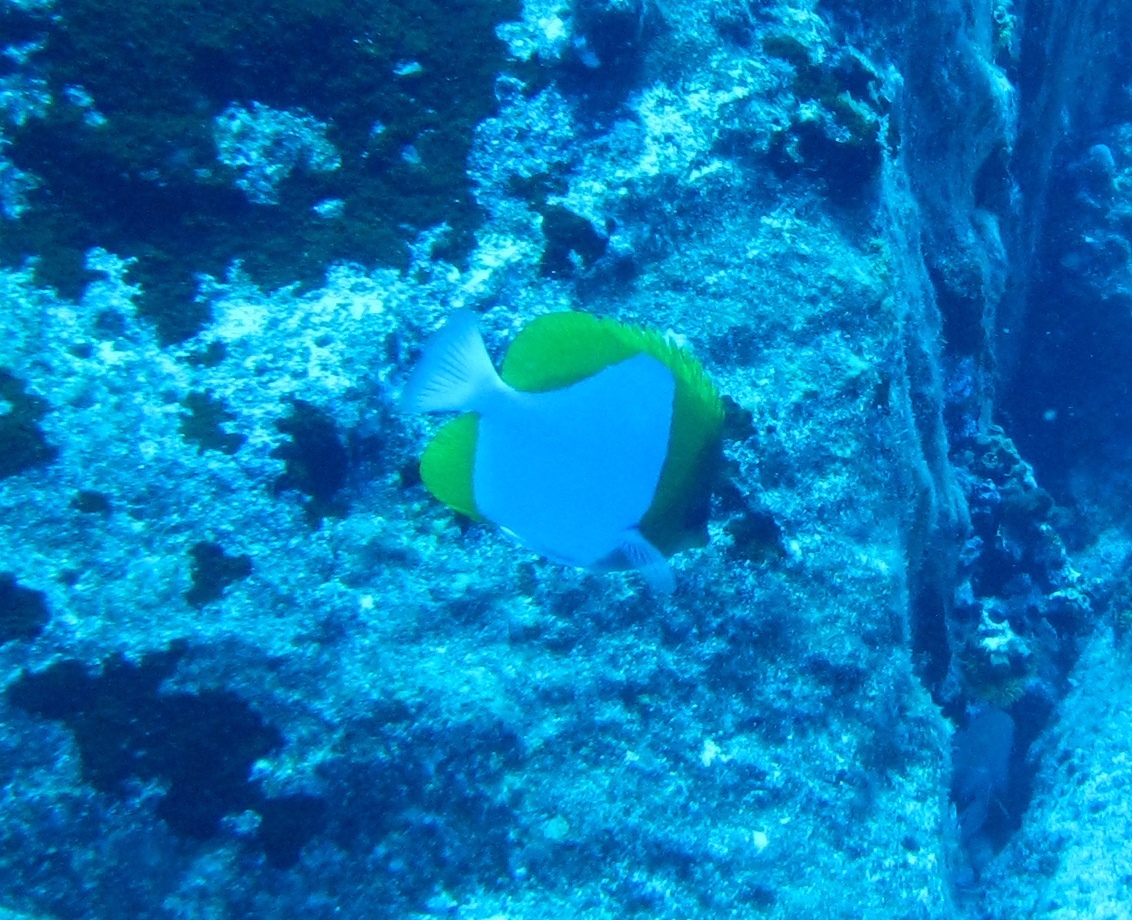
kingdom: Animalia
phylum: Chordata
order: Perciformes
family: Chaetodontidae
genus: Hemitaurichthys
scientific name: Hemitaurichthys polylepis
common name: Brushytoothed butterflyfish
